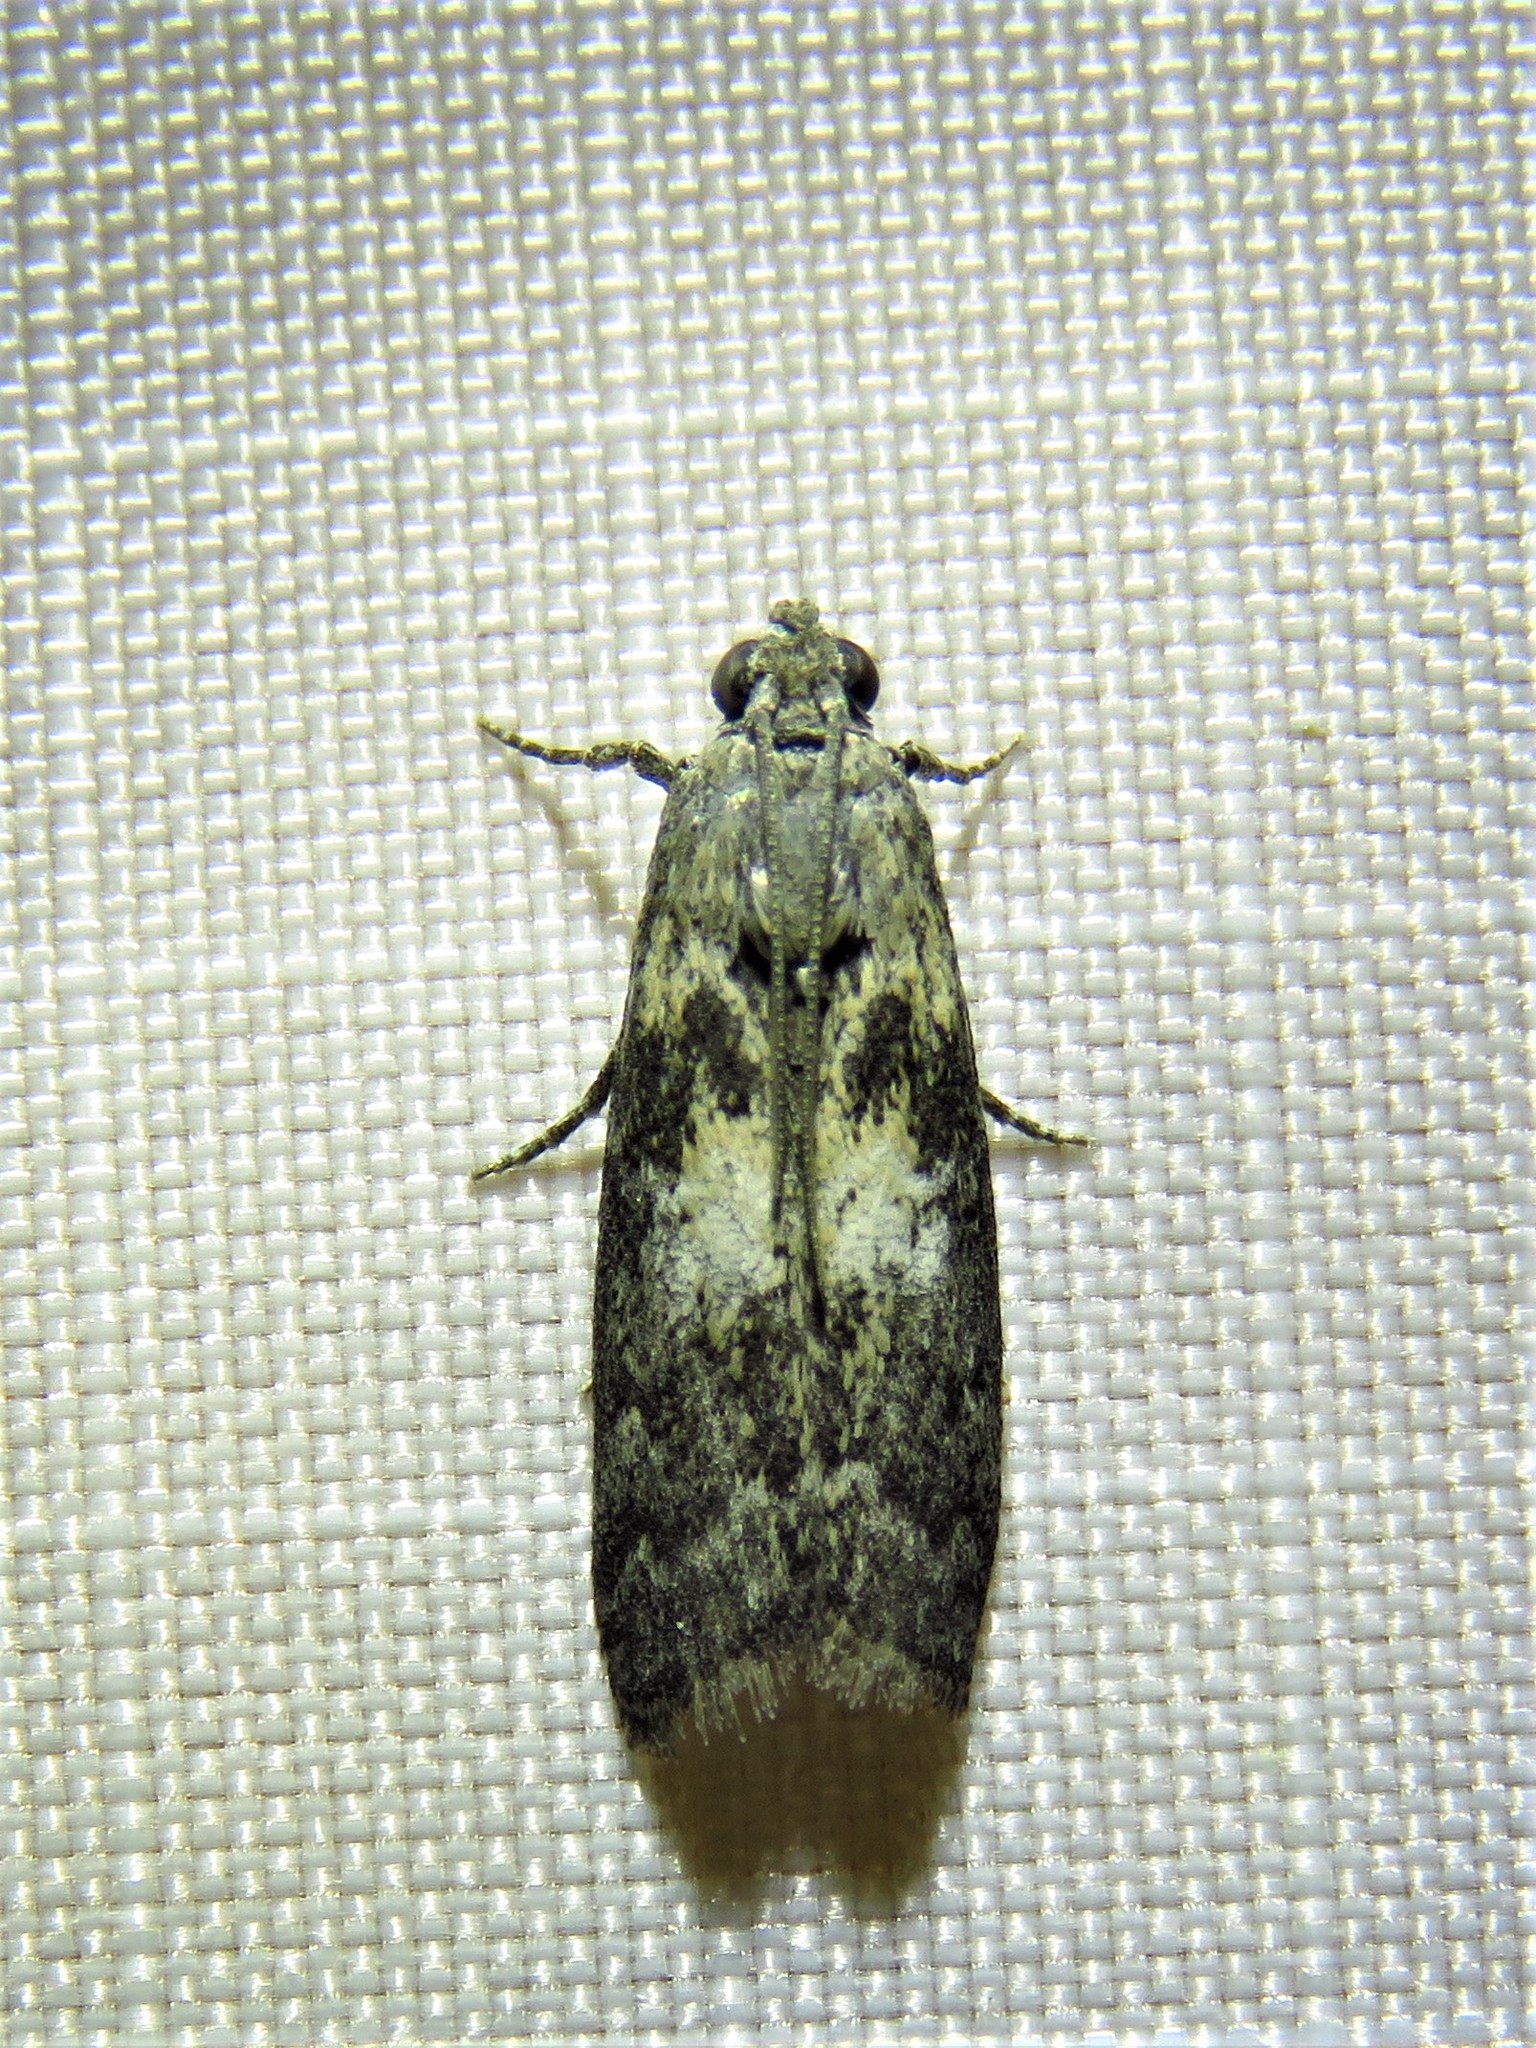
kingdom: Animalia
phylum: Arthropoda
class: Insecta
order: Lepidoptera
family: Pyralidae
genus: Tacoma
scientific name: Tacoma feriella
